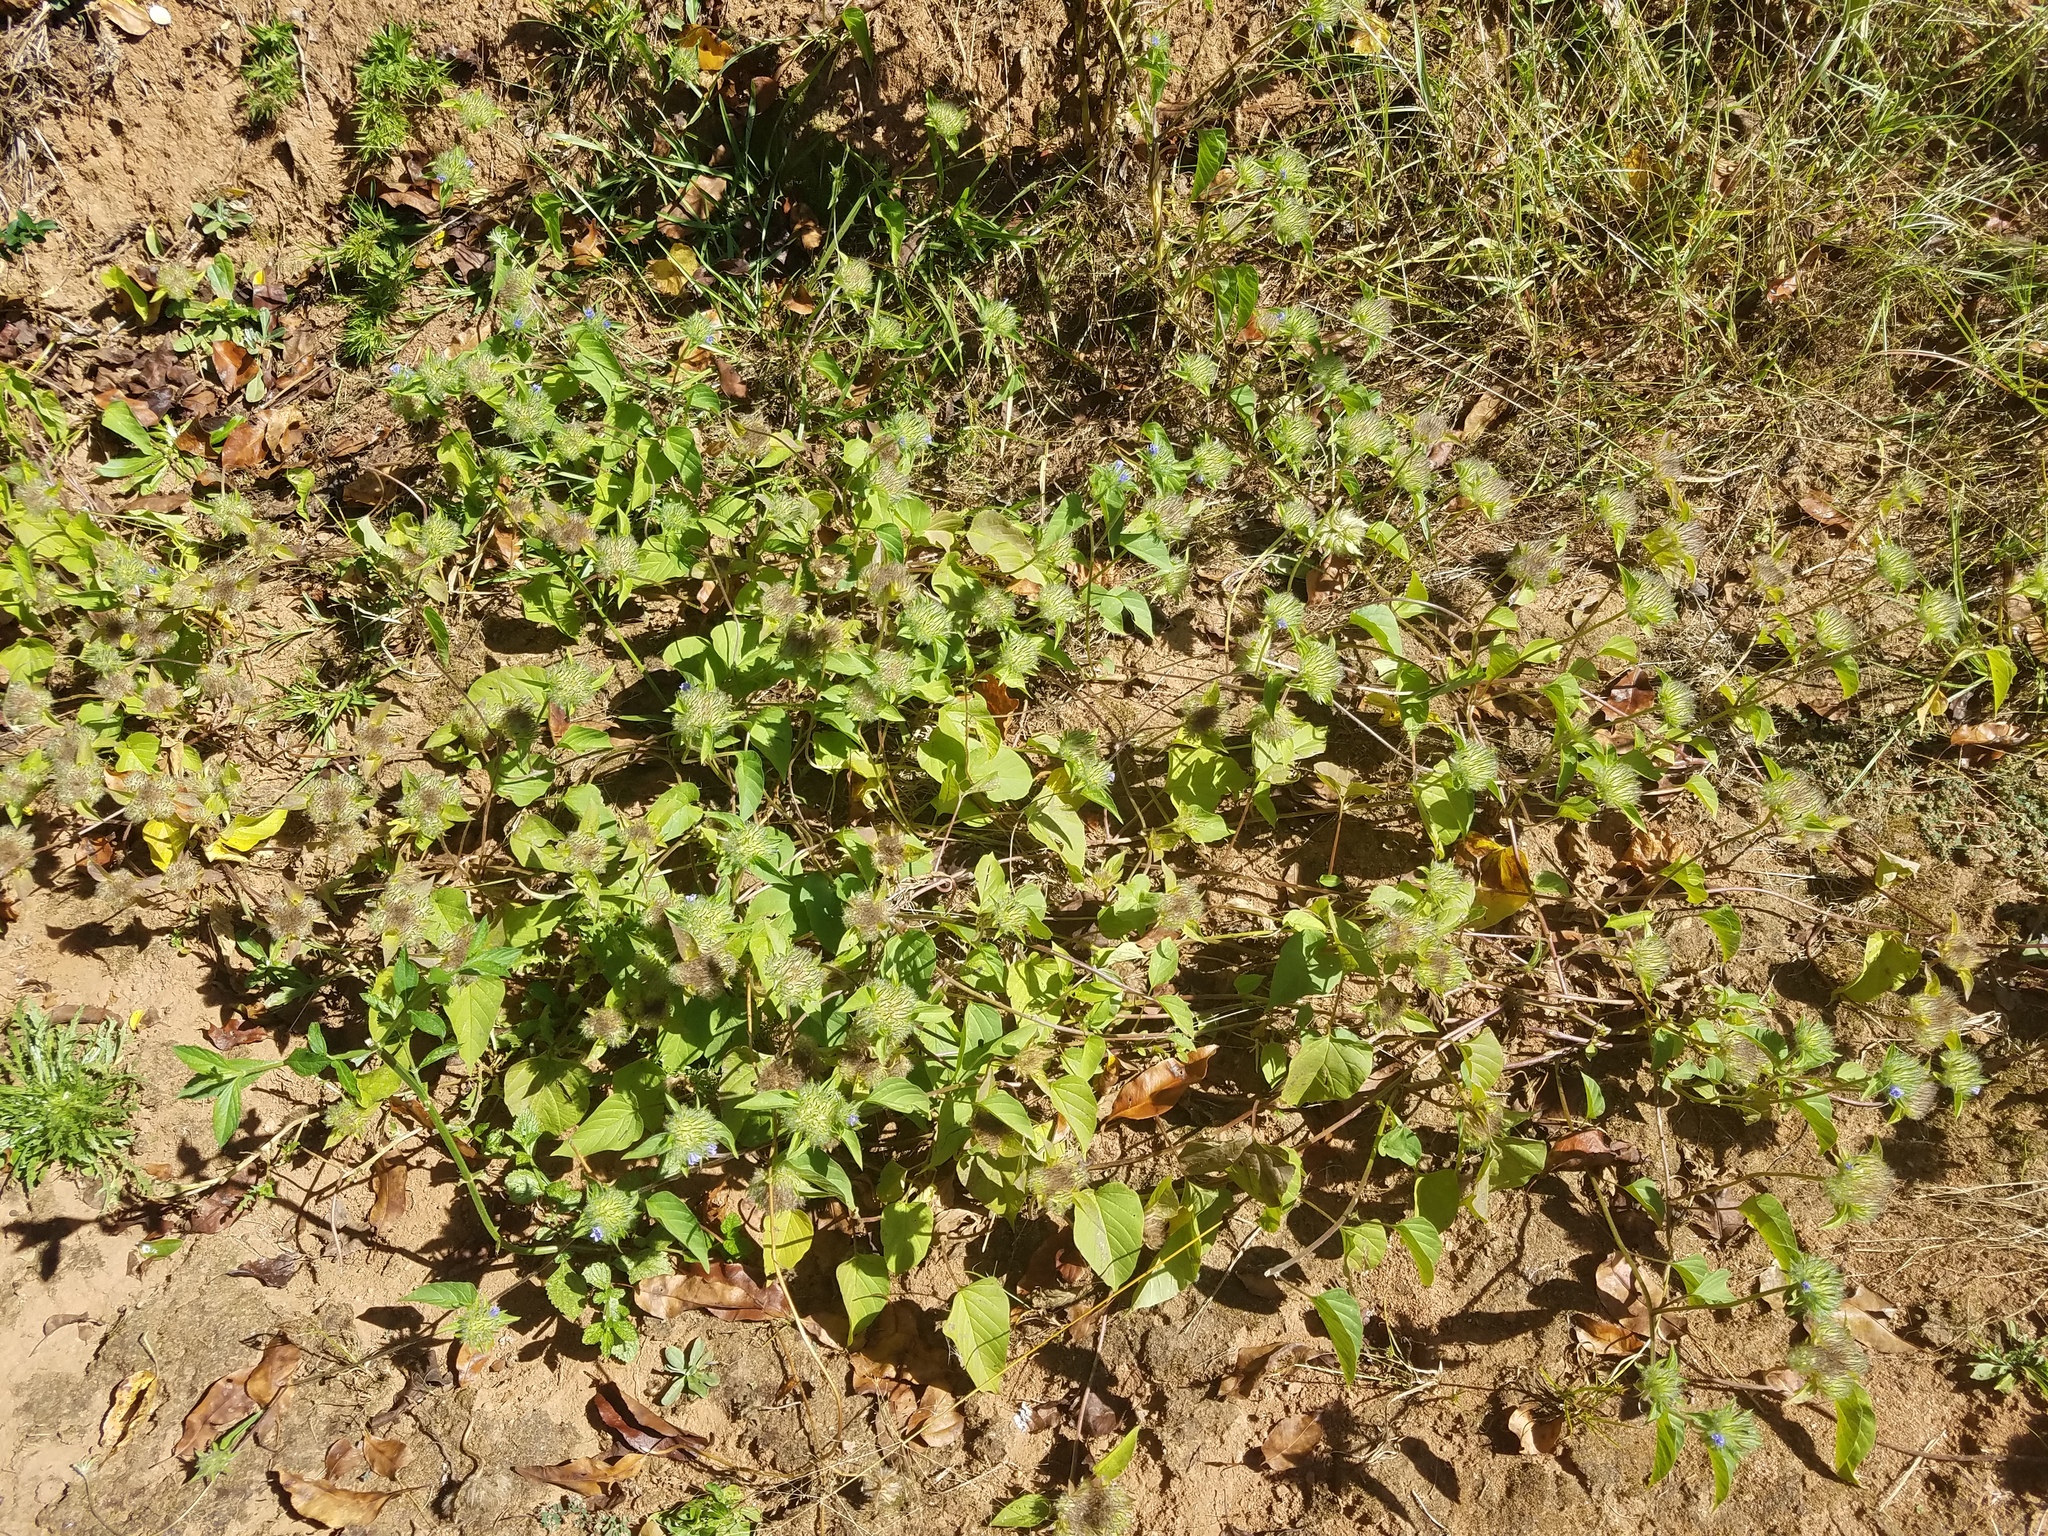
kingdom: Plantae
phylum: Tracheophyta
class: Magnoliopsida
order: Solanales
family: Convolvulaceae
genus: Jacquemontia
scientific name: Jacquemontia tamnifolia
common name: Hairy clustervine
